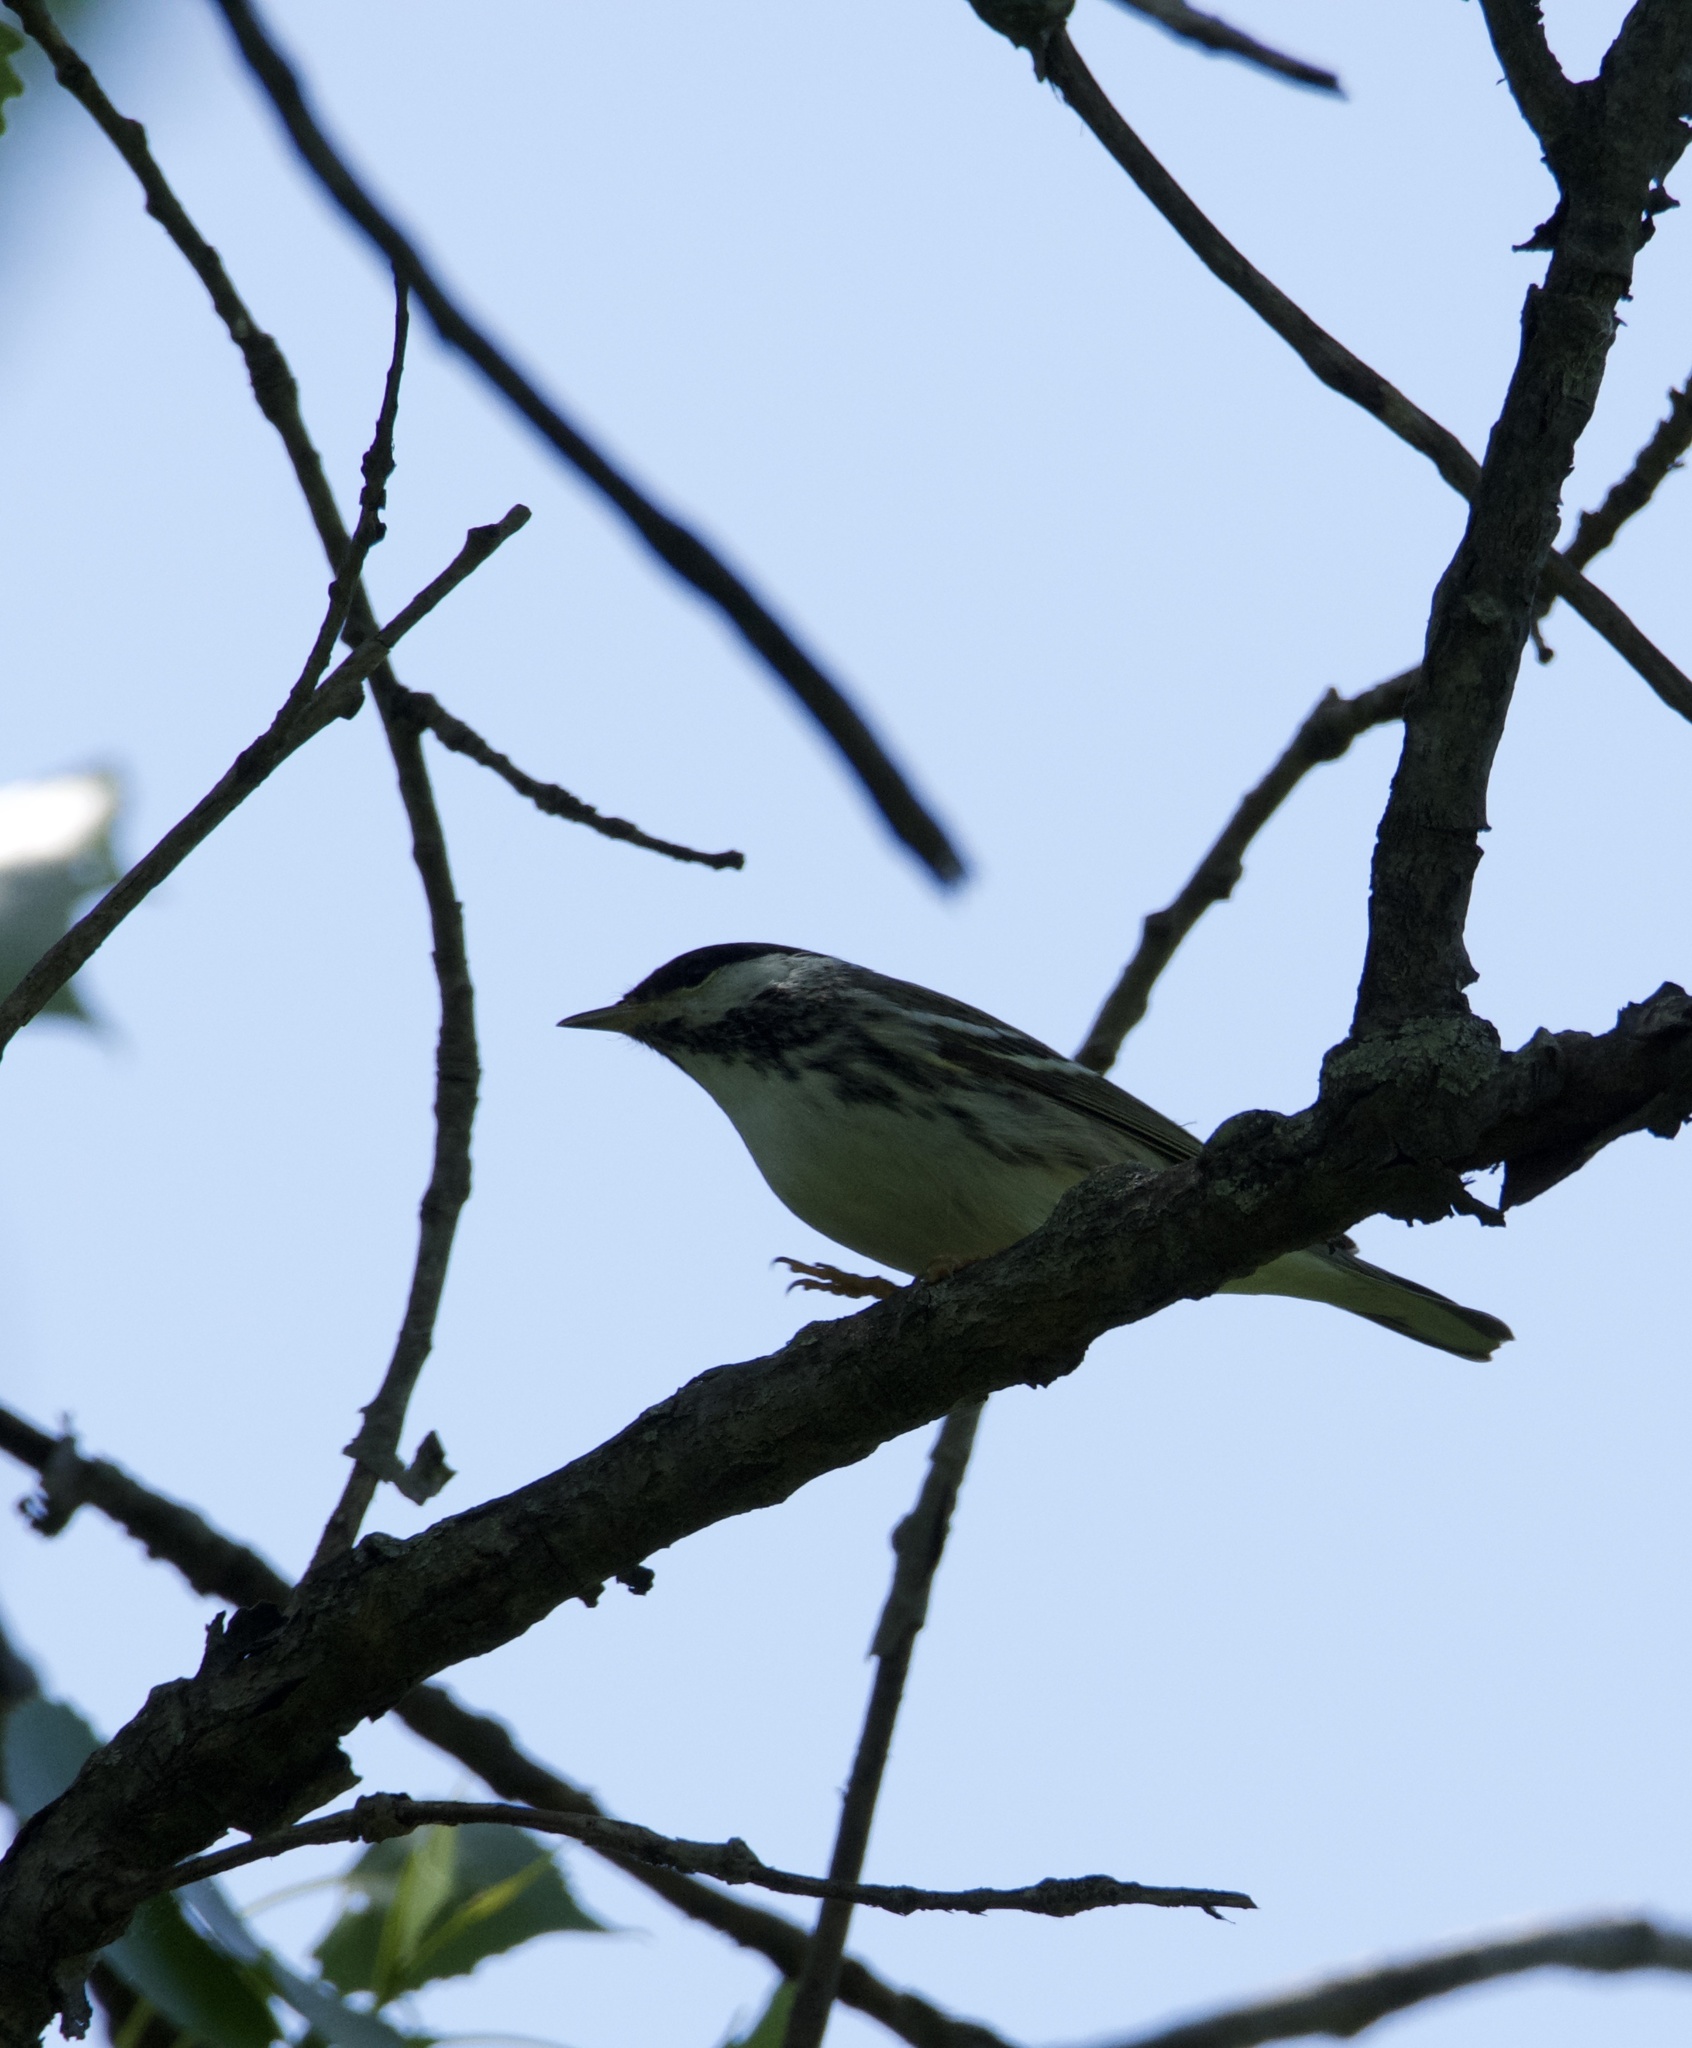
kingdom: Animalia
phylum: Chordata
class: Aves
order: Passeriformes
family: Parulidae
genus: Setophaga
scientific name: Setophaga striata
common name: Blackpoll warbler
